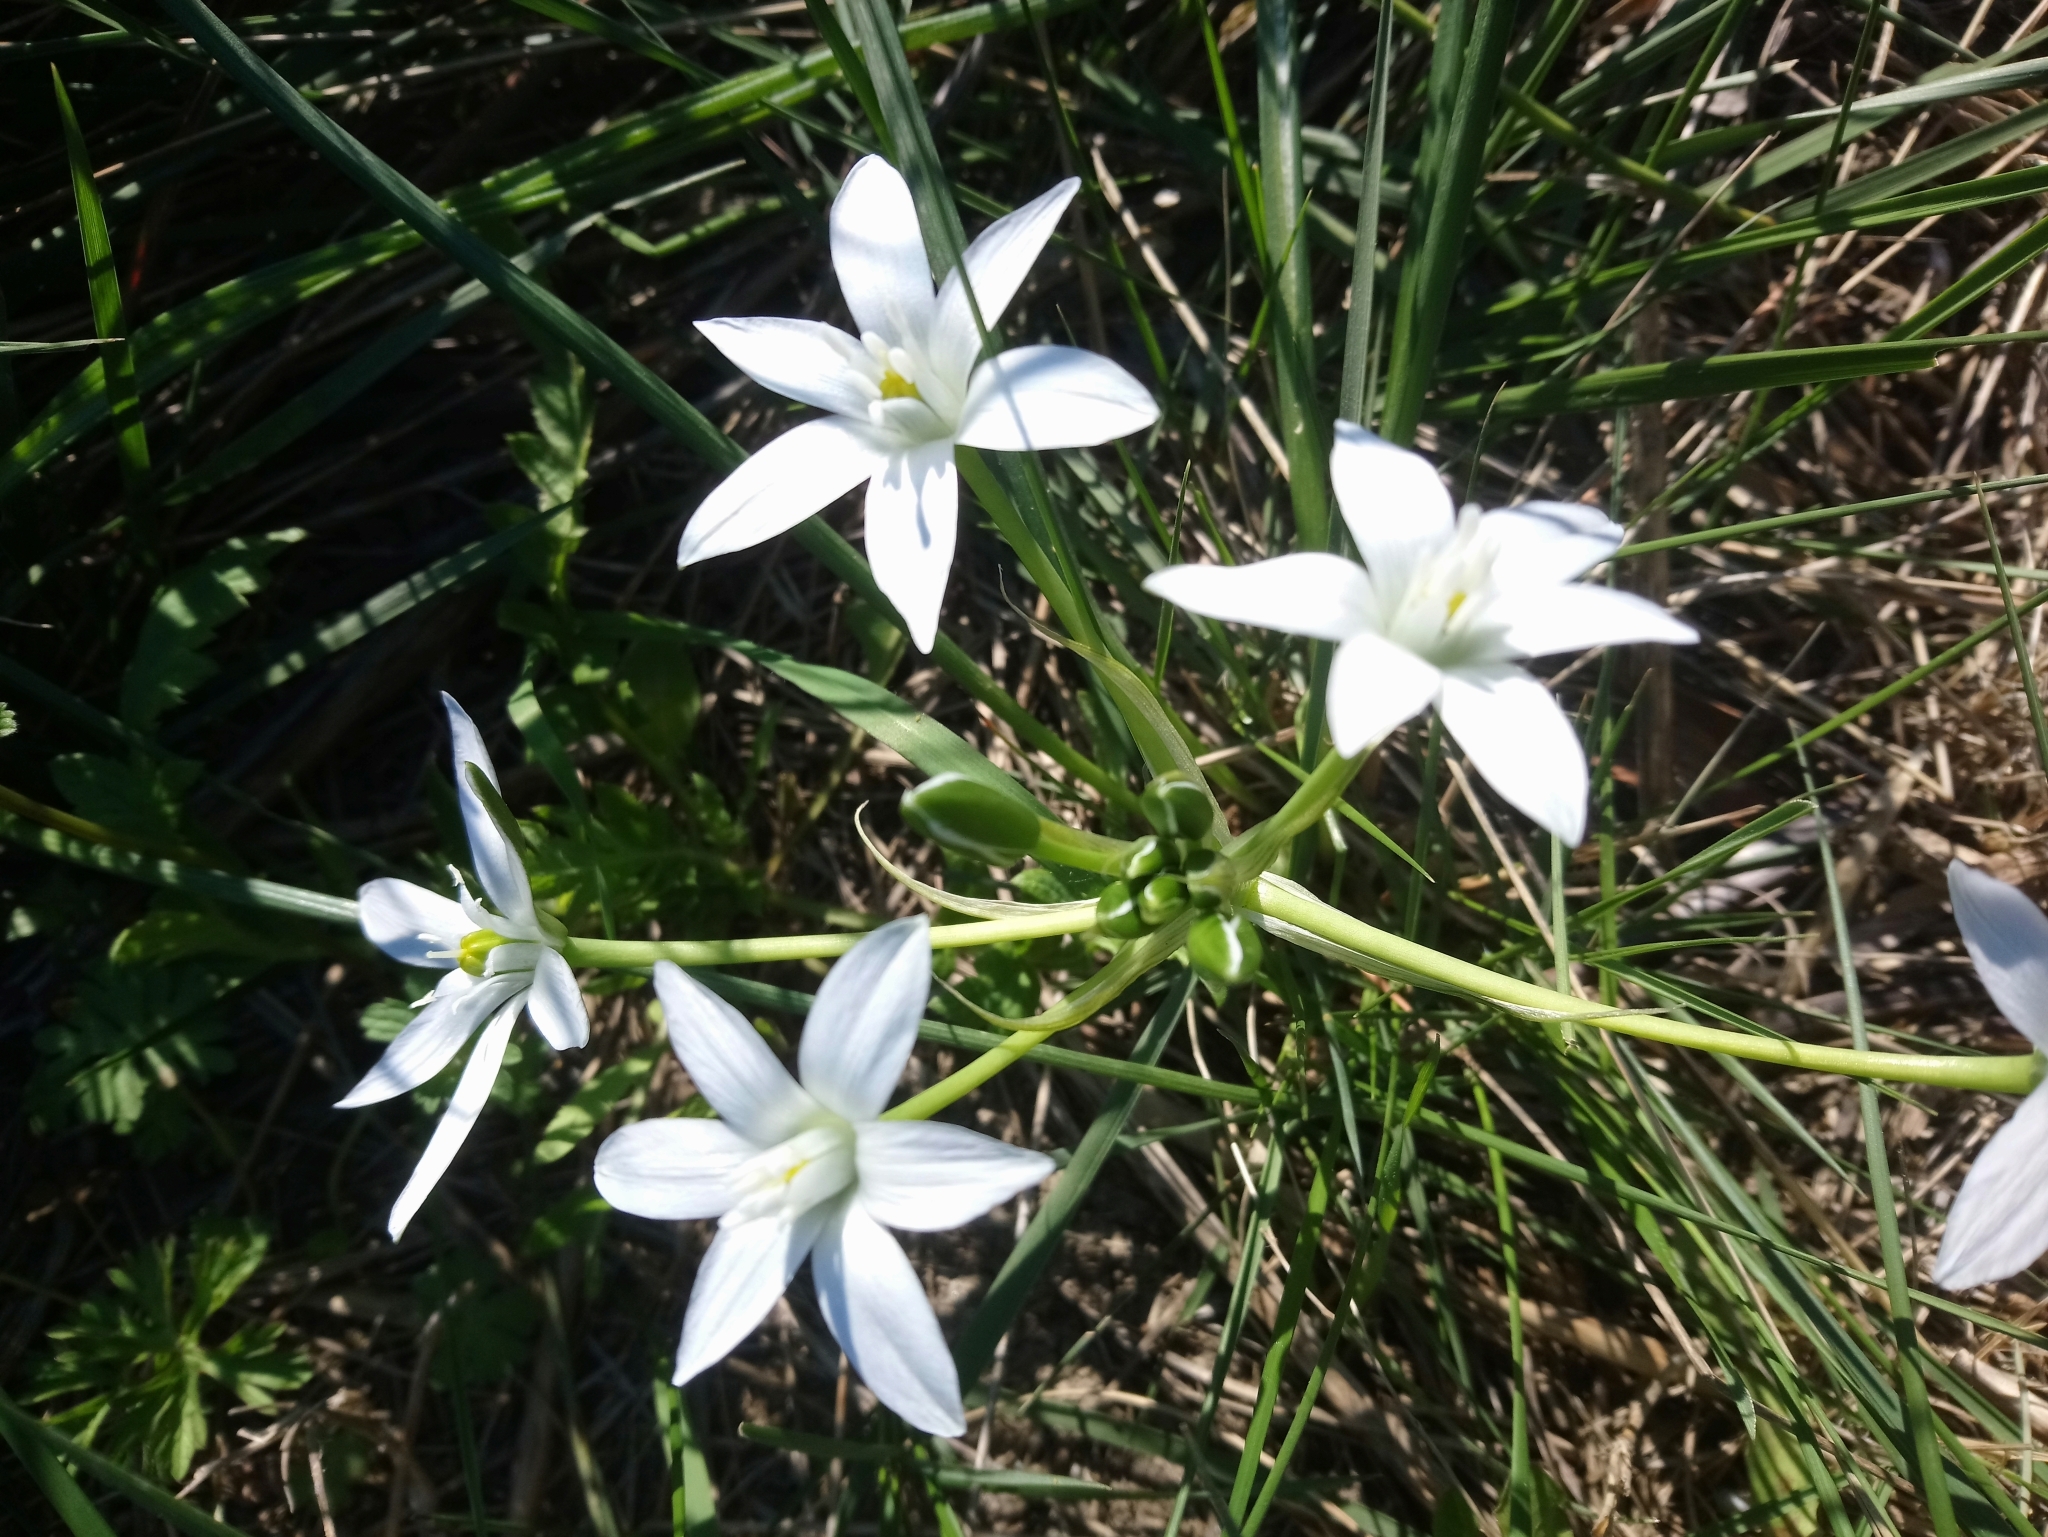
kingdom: Plantae
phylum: Tracheophyta
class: Liliopsida
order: Asparagales
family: Asparagaceae
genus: Ornithogalum
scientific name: Ornithogalum umbellatum
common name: Garden star-of-bethlehem
